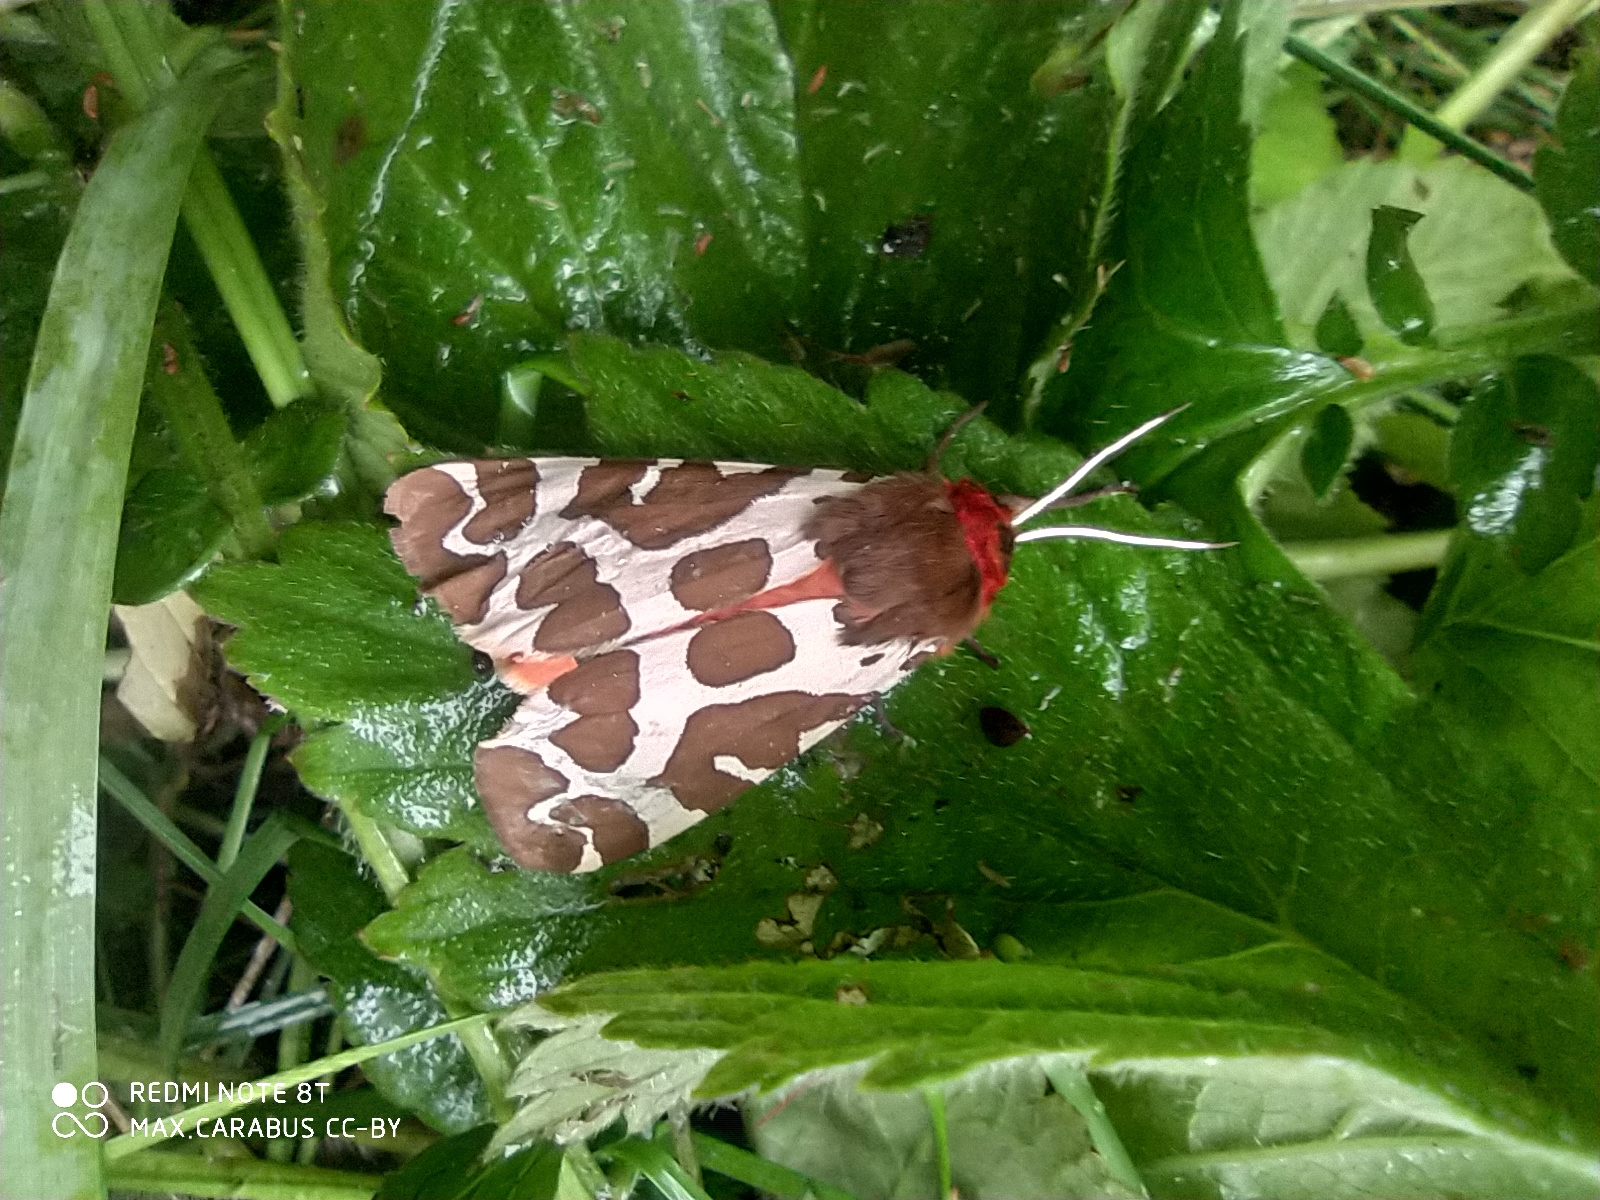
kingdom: Animalia
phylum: Arthropoda
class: Insecta
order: Lepidoptera
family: Erebidae
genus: Arctia
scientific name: Arctia caja
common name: Garden tiger
